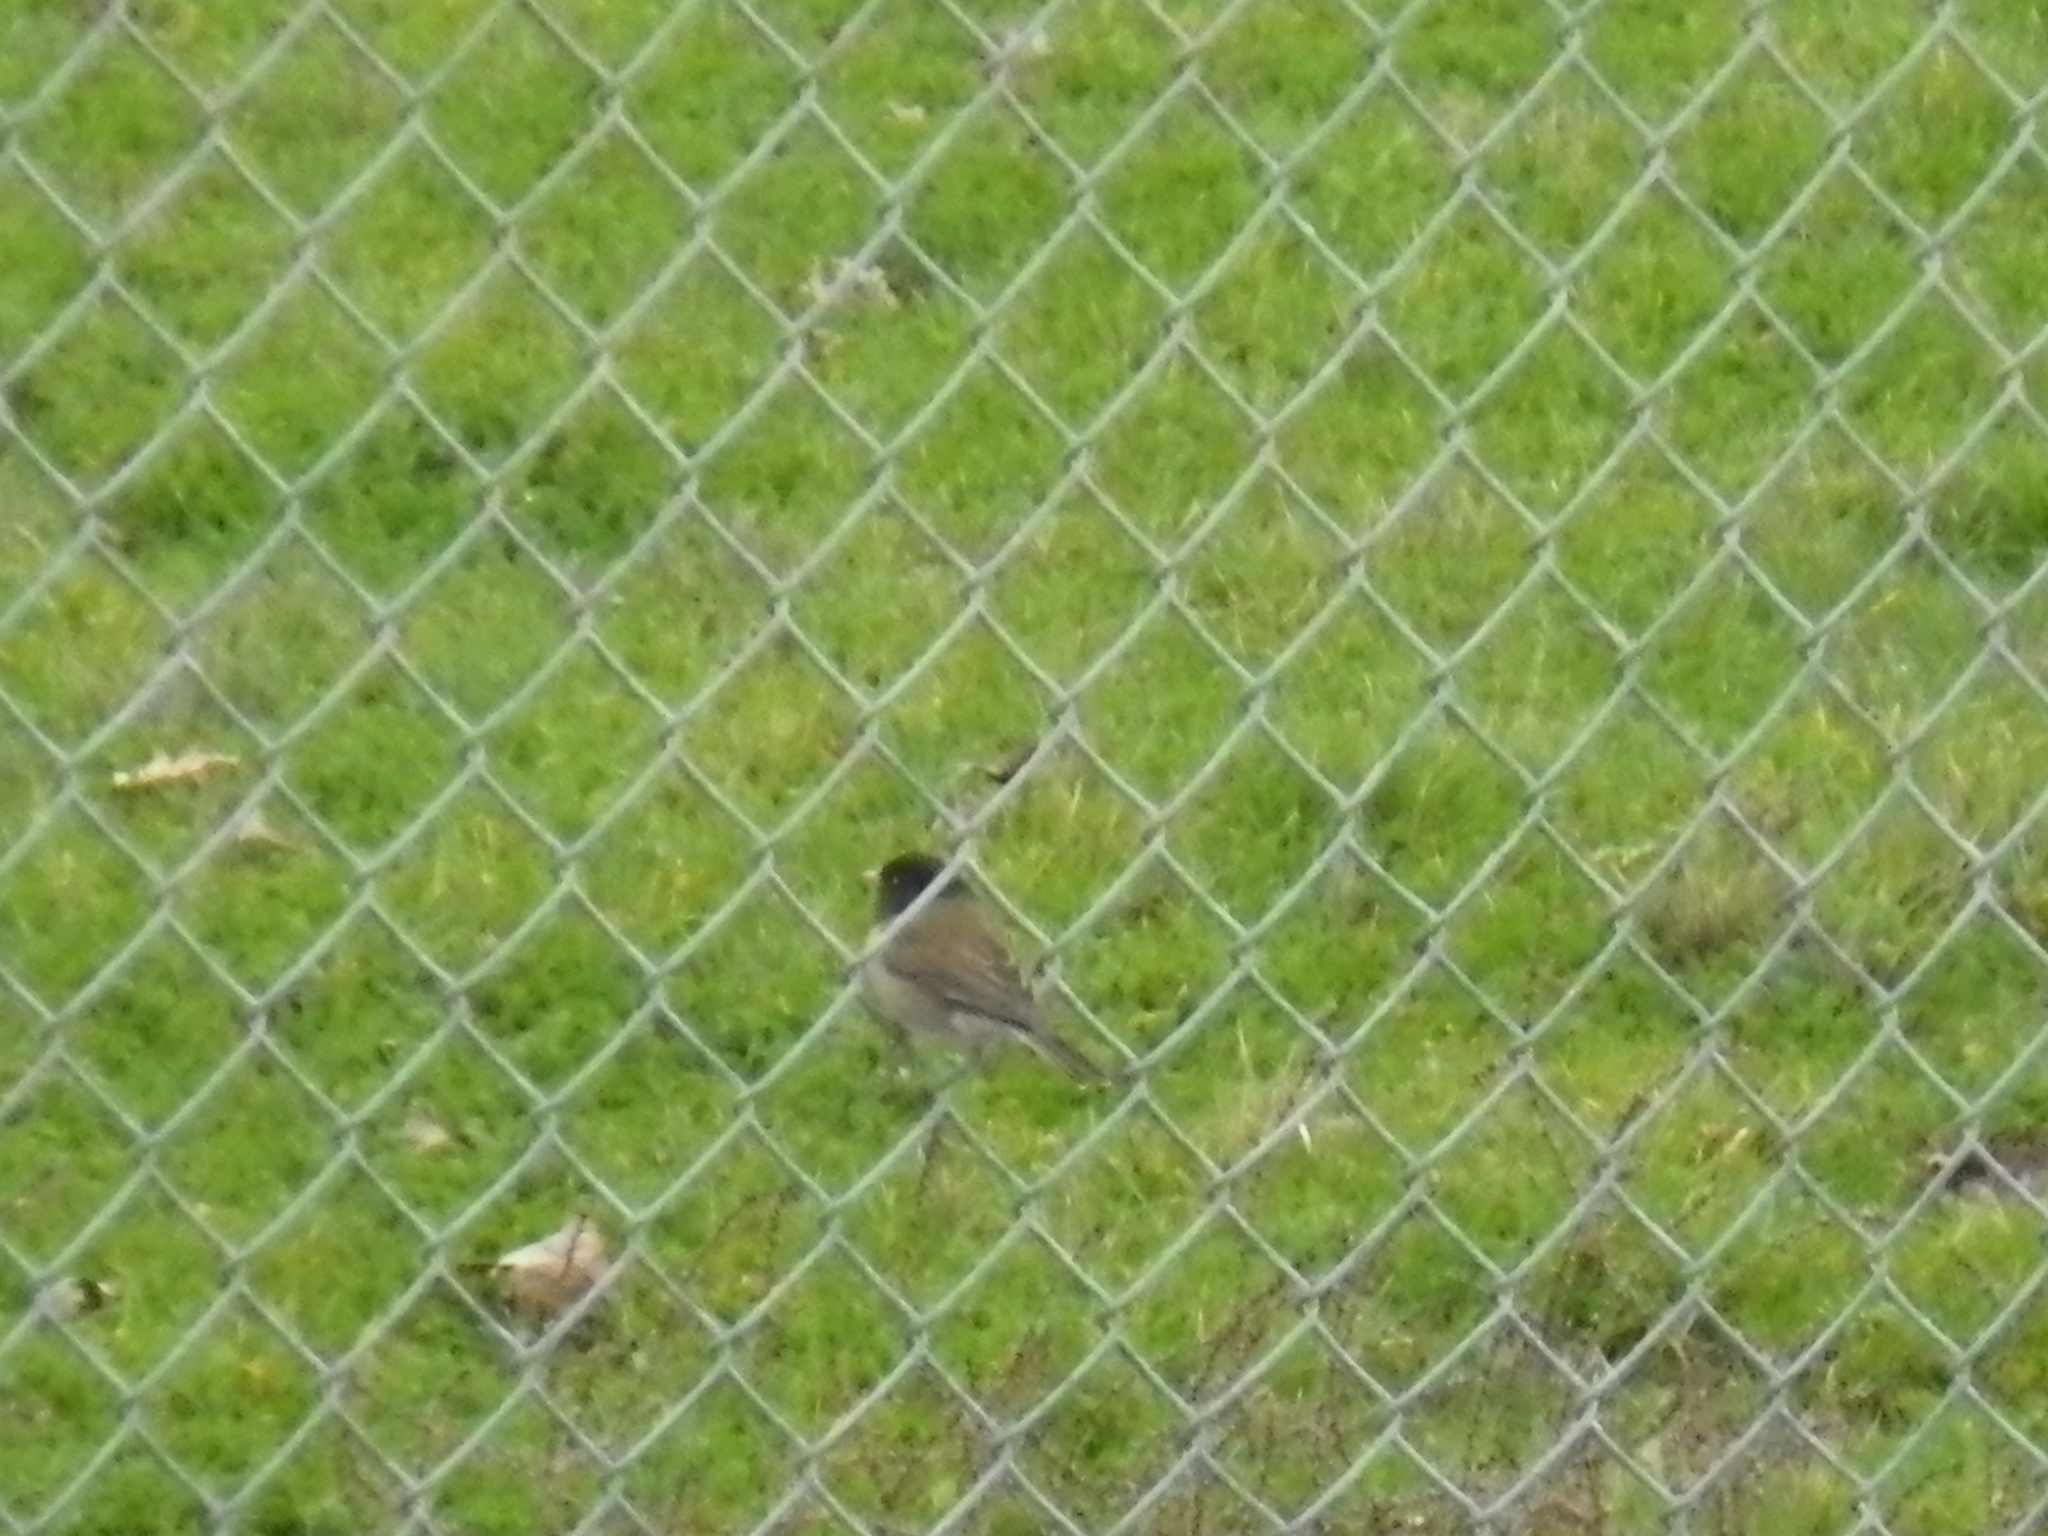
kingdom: Animalia
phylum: Chordata
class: Aves
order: Passeriformes
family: Passerellidae
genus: Junco
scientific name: Junco hyemalis
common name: Dark-eyed junco
